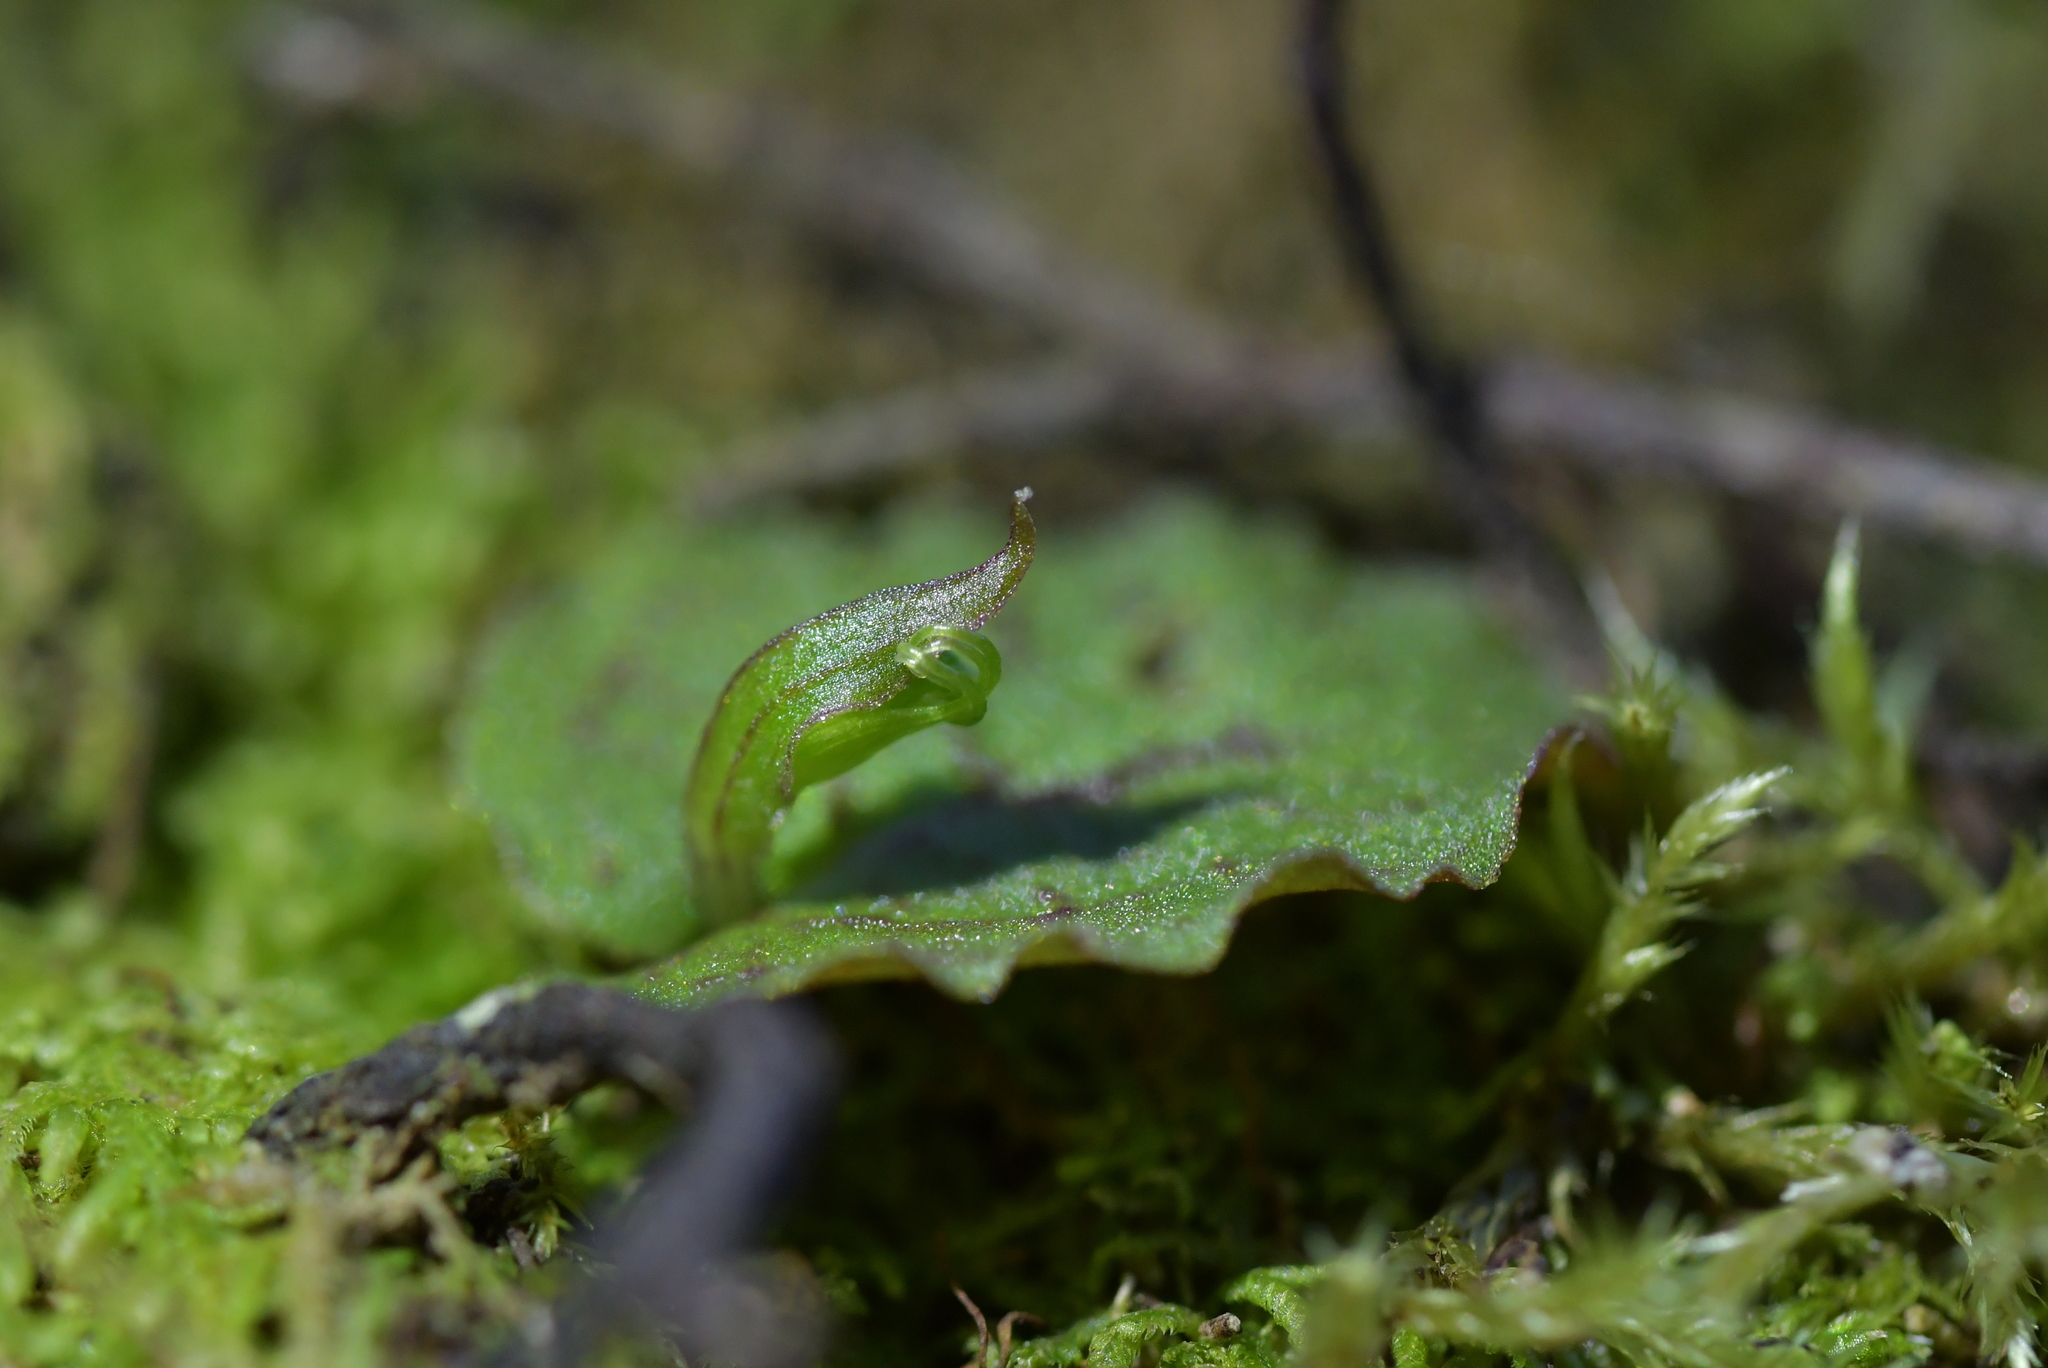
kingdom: Plantae
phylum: Tracheophyta
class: Liliopsida
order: Asparagales
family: Orchidaceae
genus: Corybas
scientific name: Corybas oblongus
